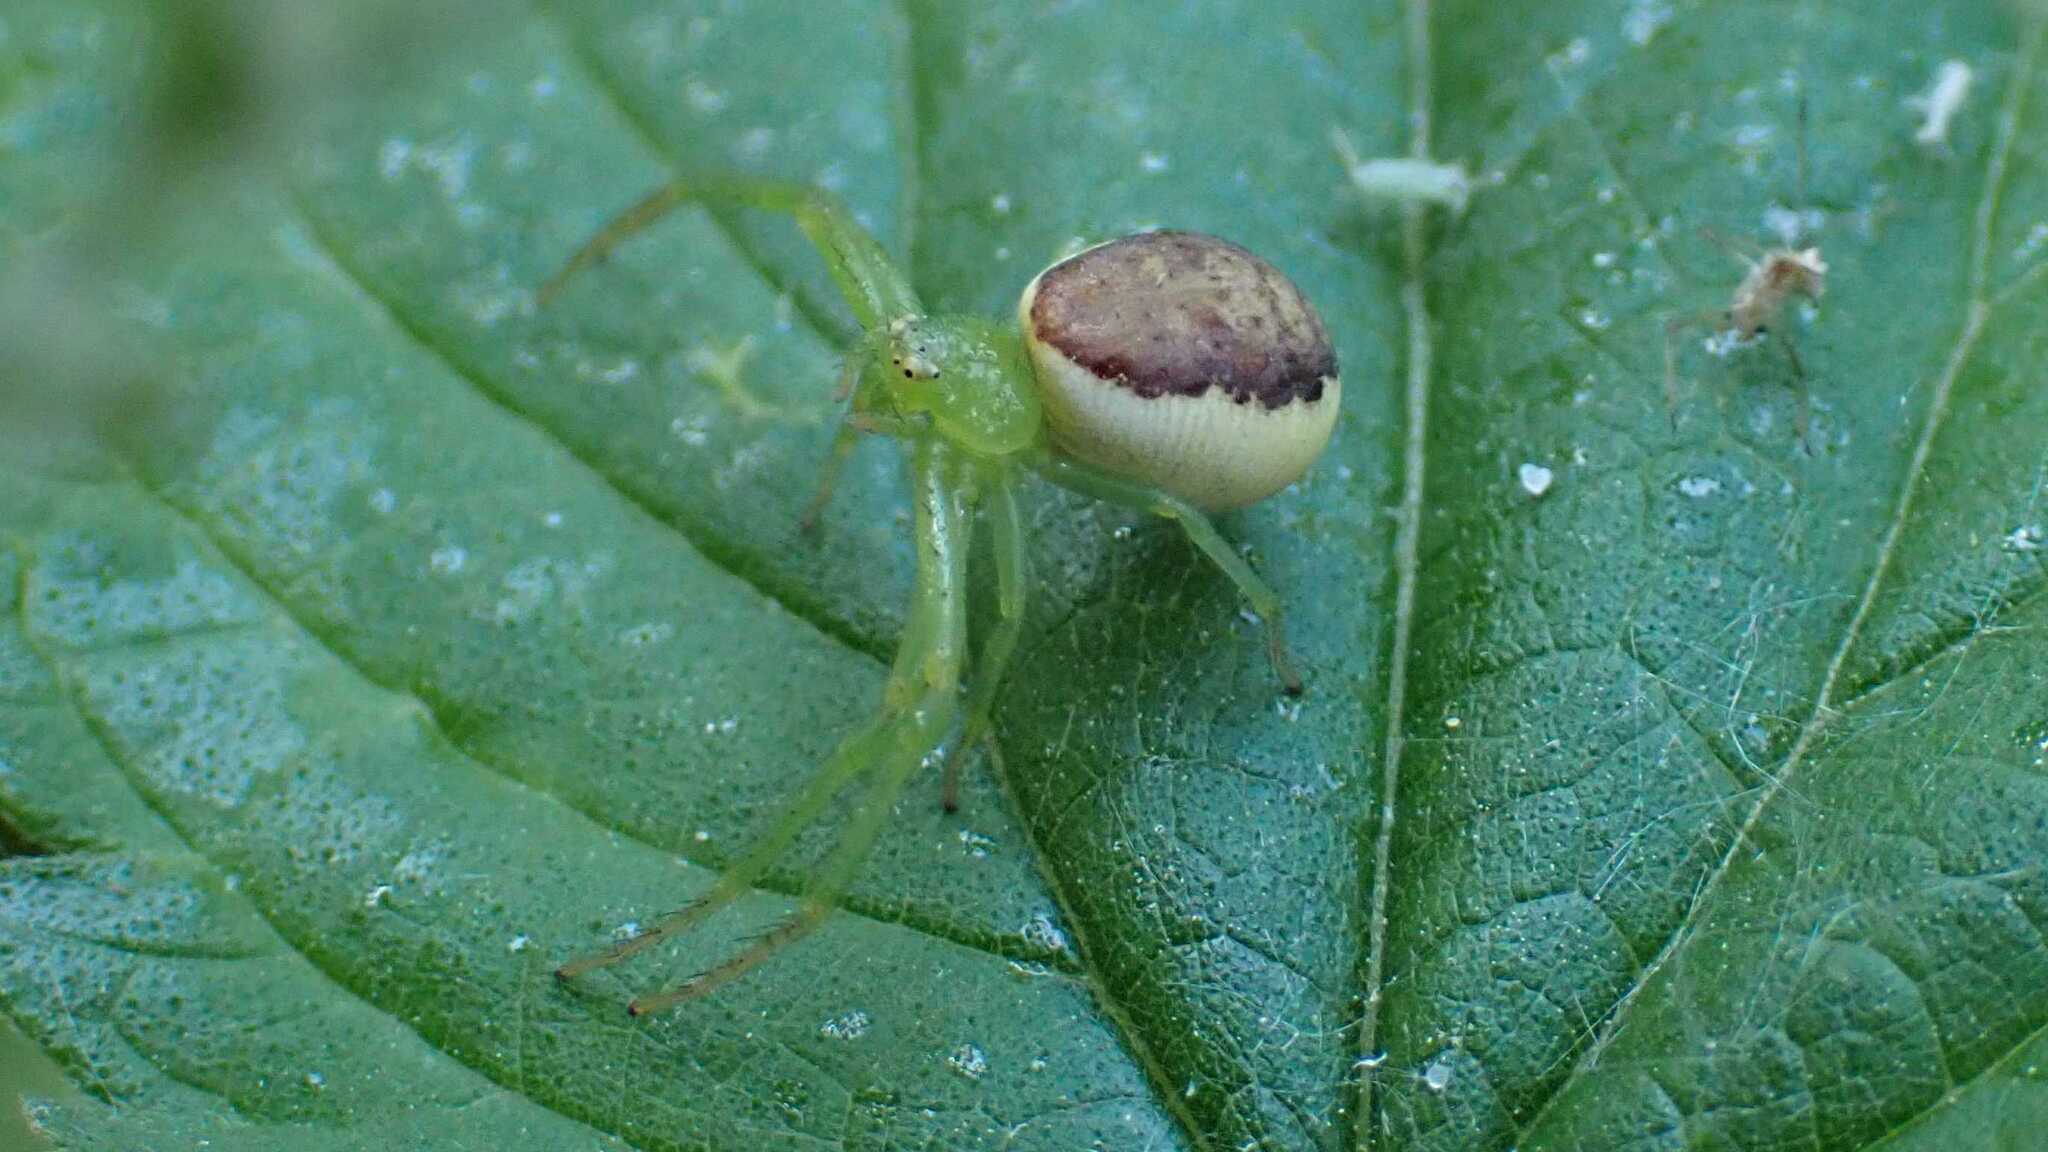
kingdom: Animalia
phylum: Arthropoda
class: Arachnida
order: Araneae
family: Thomisidae
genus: Diaea
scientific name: Diaea dorsata
